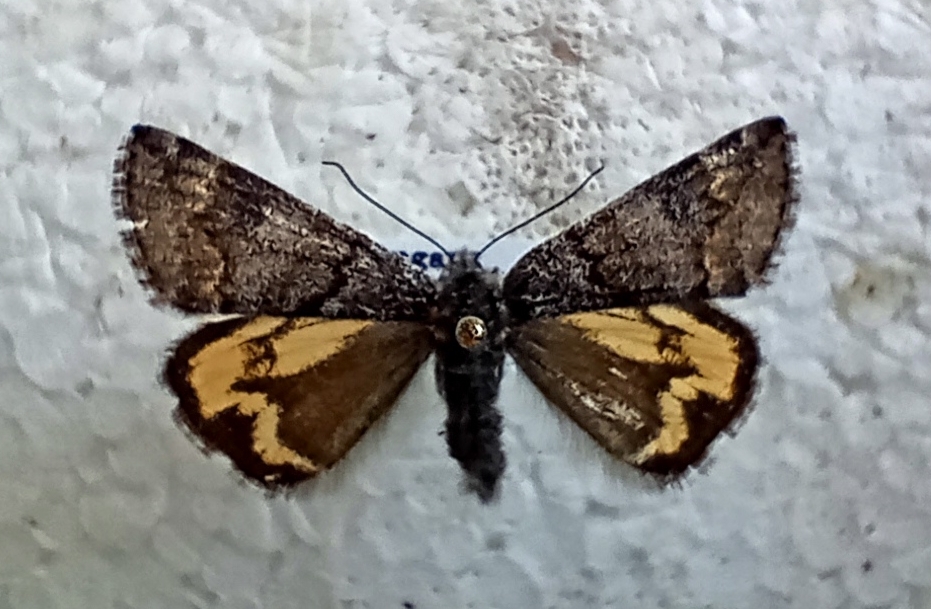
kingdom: Animalia
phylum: Arthropoda
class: Insecta
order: Lepidoptera
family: Geometridae
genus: Boudinotiana
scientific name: Boudinotiana puella
